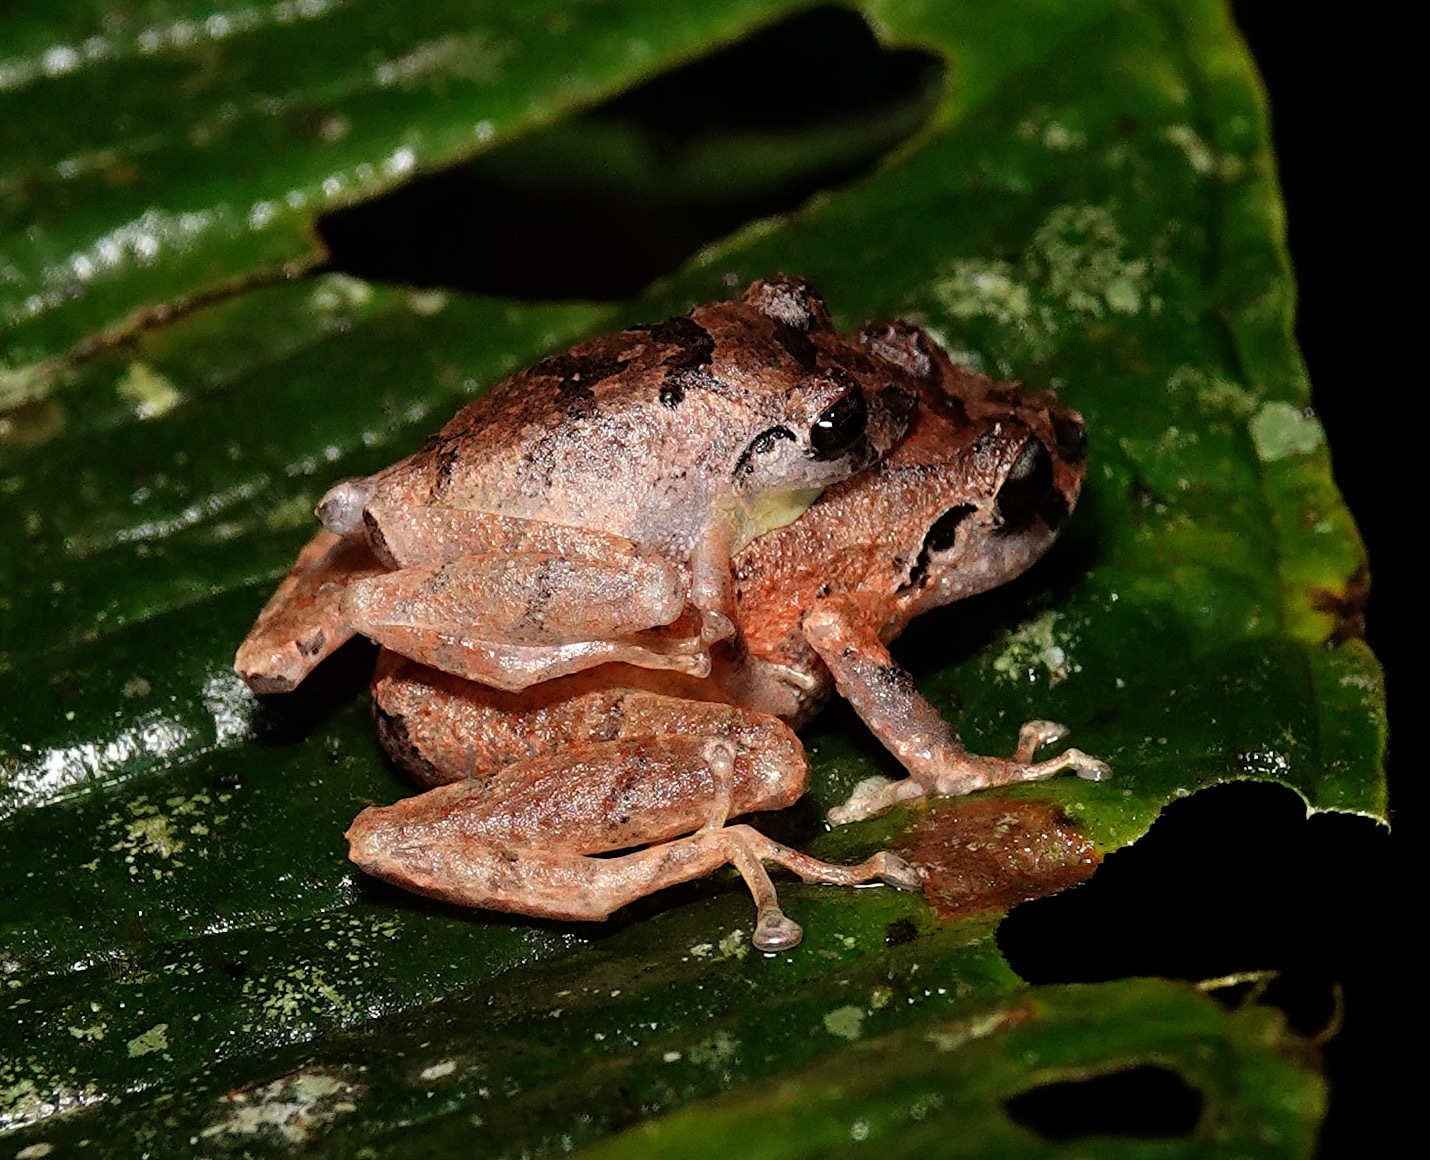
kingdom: Animalia
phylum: Chordata
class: Amphibia
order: Anura
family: Craugastoridae
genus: Pristimantis
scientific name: Pristimantis palmeri
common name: Palmer's robber frog
